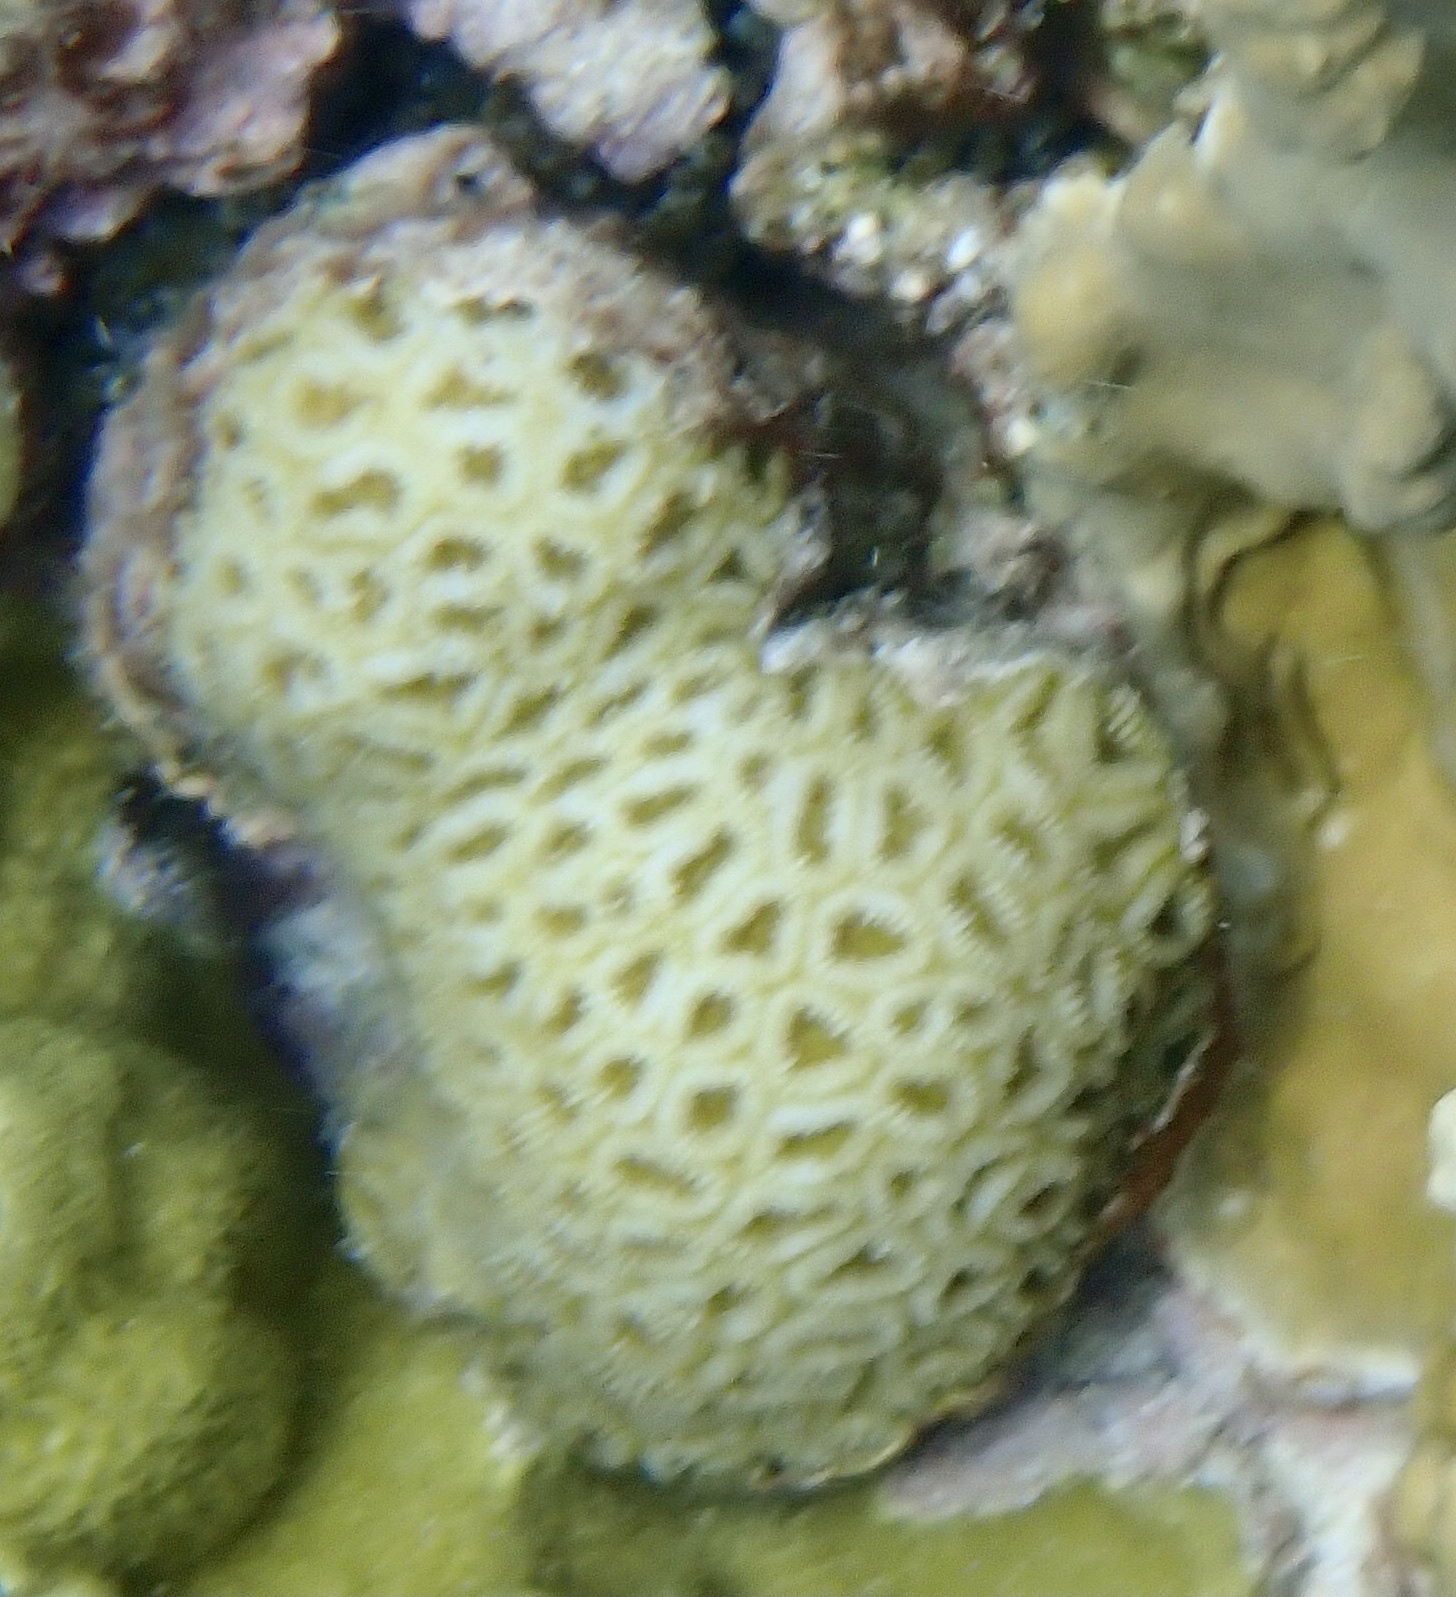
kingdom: Animalia
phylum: Cnidaria
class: Anthozoa
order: Scleractinia
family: Faviidae
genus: Favia
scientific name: Favia fragum
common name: Golfball coral
